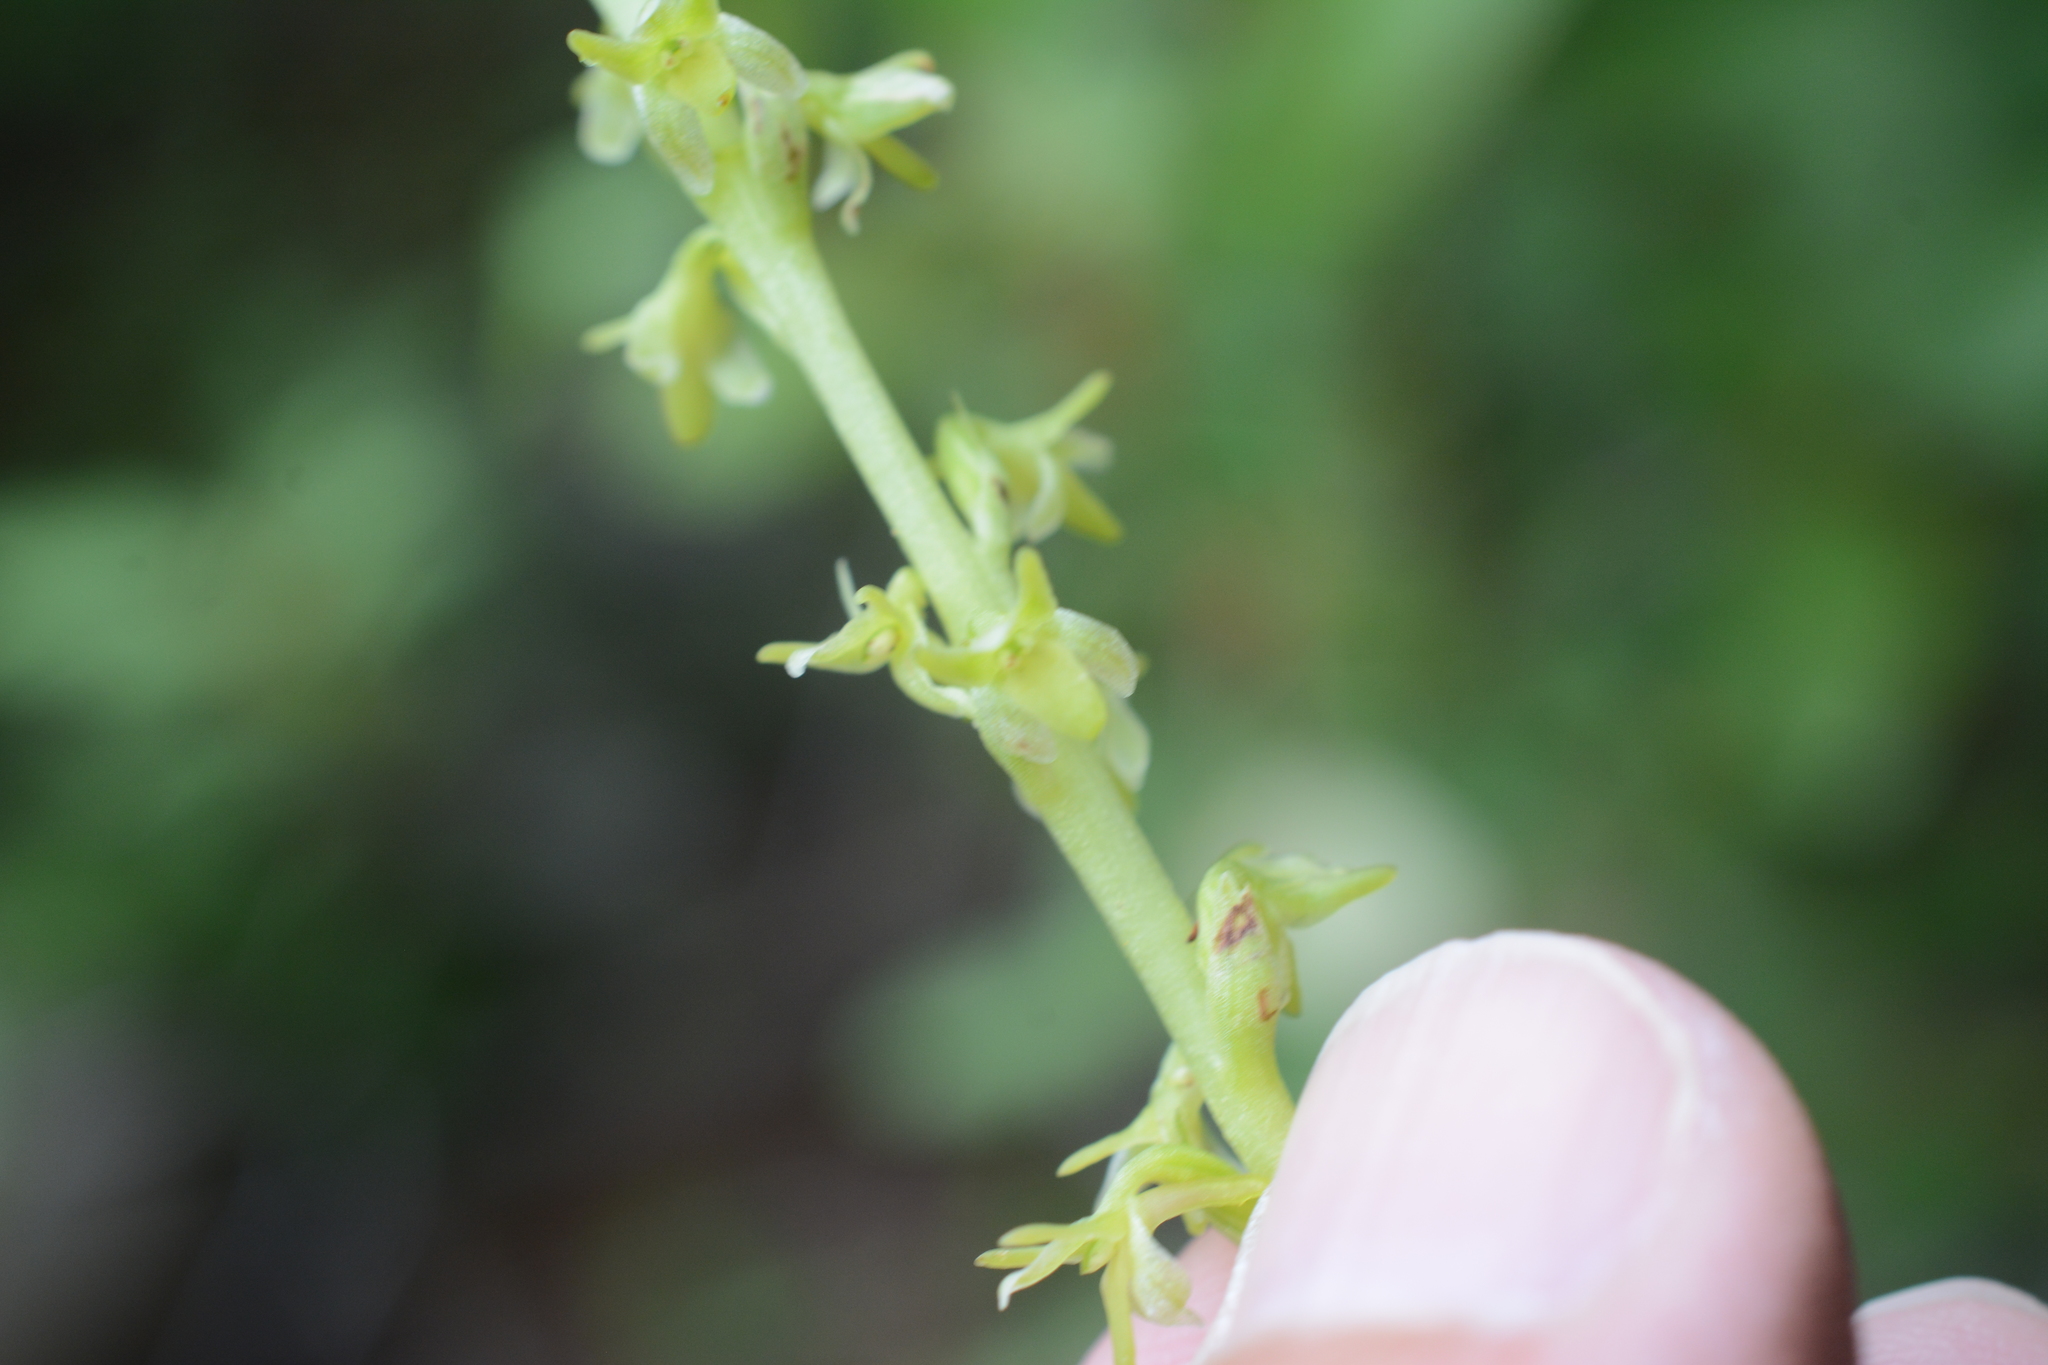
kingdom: Plantae
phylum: Tracheophyta
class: Liliopsida
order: Asparagales
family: Orchidaceae
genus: Platanthera
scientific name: Platanthera unalascensis
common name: Alaska bog orchid
